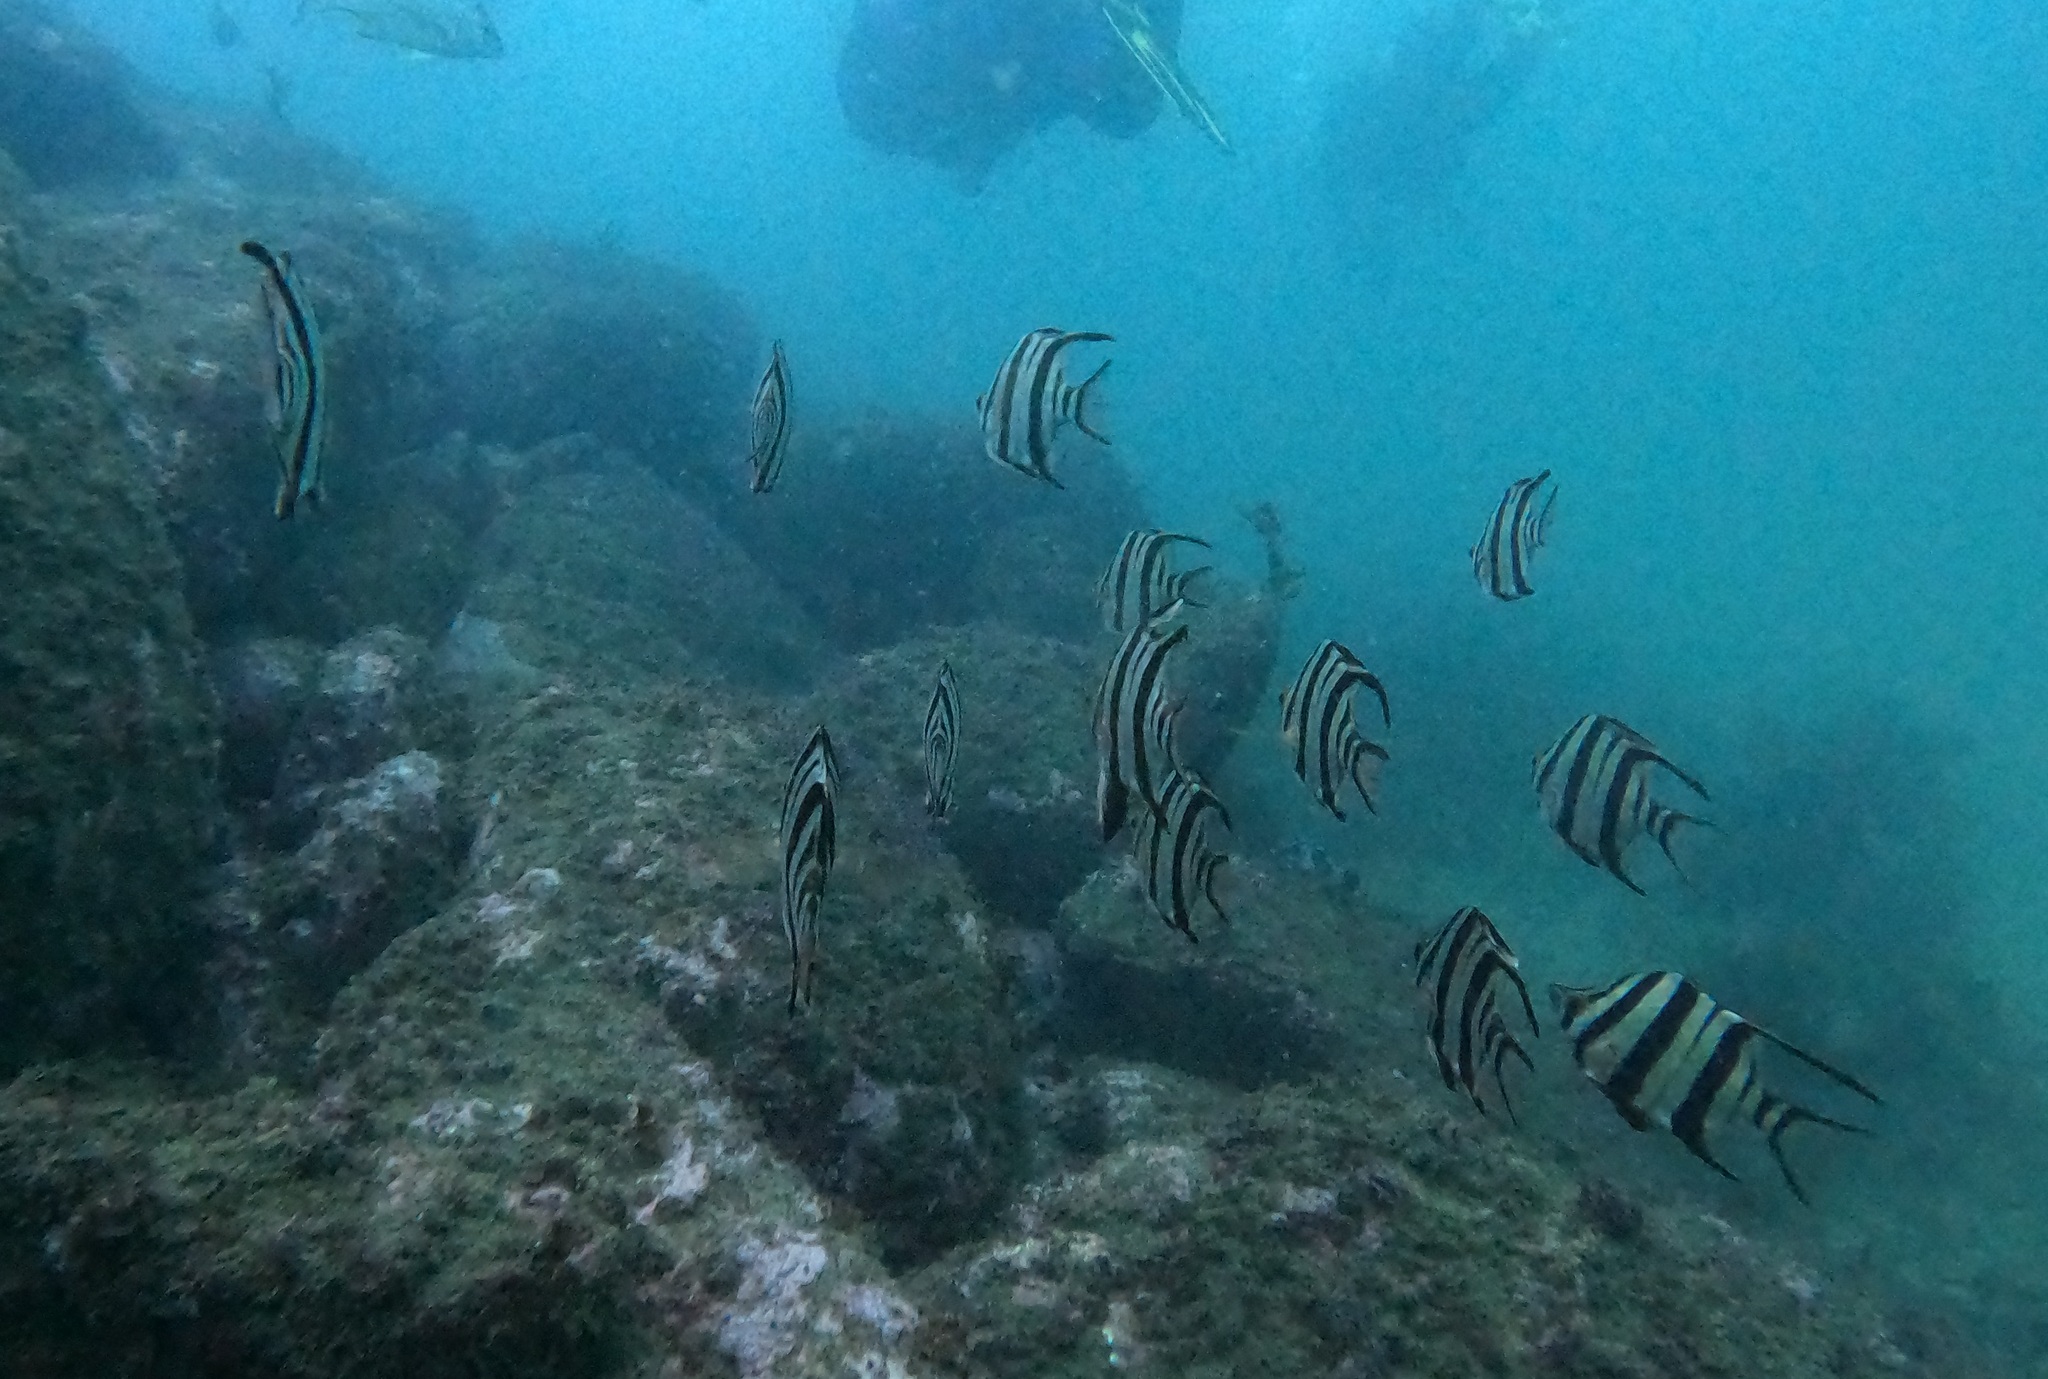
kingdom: Animalia
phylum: Chordata
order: Perciformes
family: Enoplosidae
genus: Enoplosus
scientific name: Enoplosus armatus
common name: Old wife
